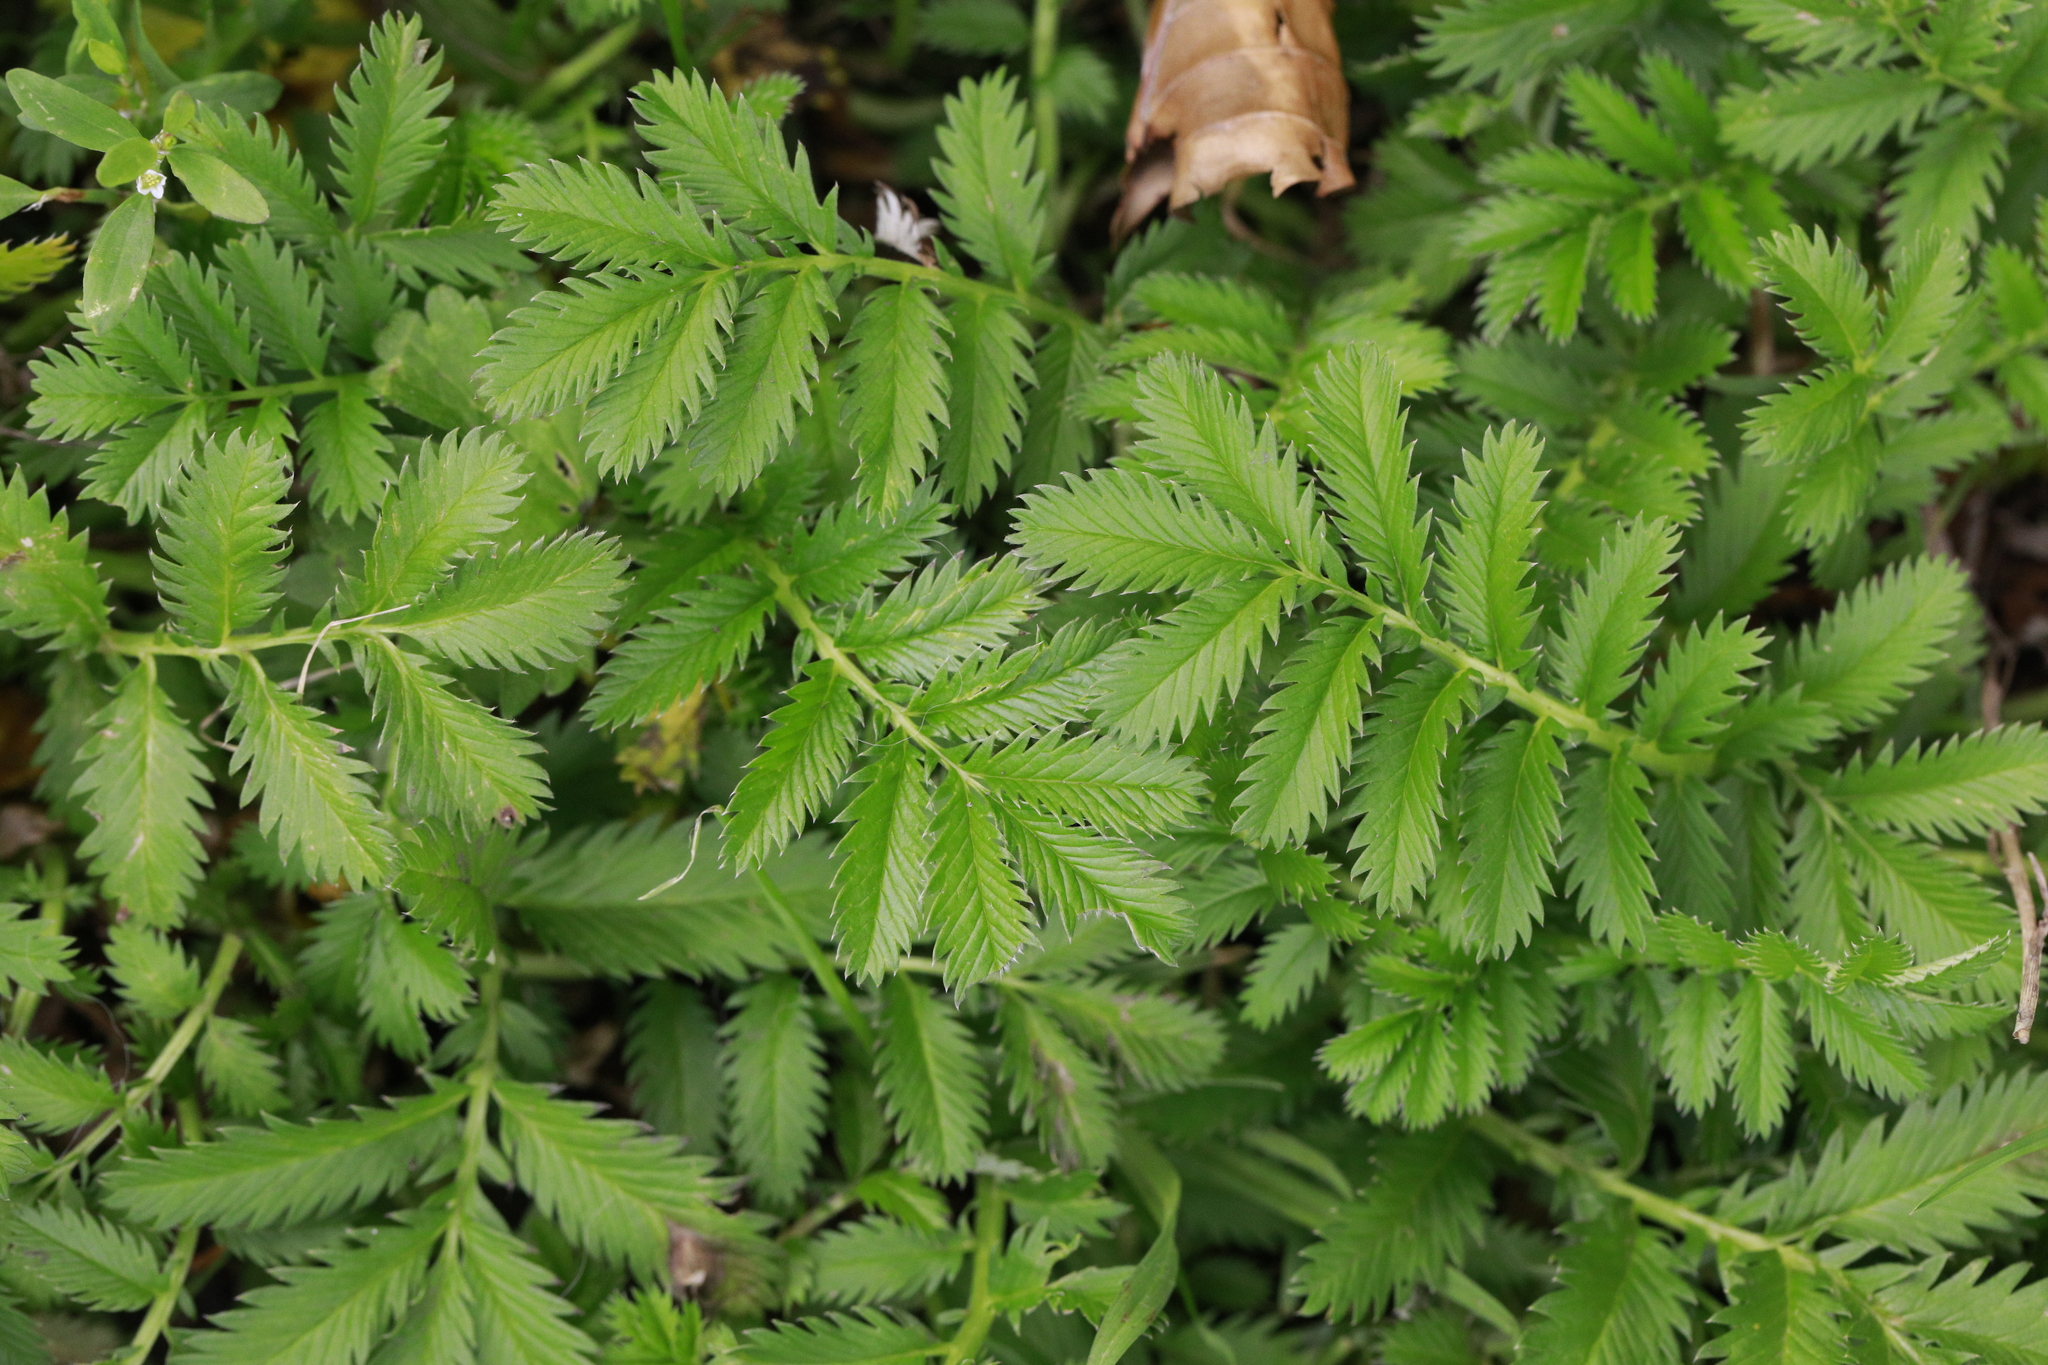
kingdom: Plantae
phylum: Tracheophyta
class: Magnoliopsida
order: Rosales
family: Rosaceae
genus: Argentina
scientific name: Argentina anserina
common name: Common silverweed
